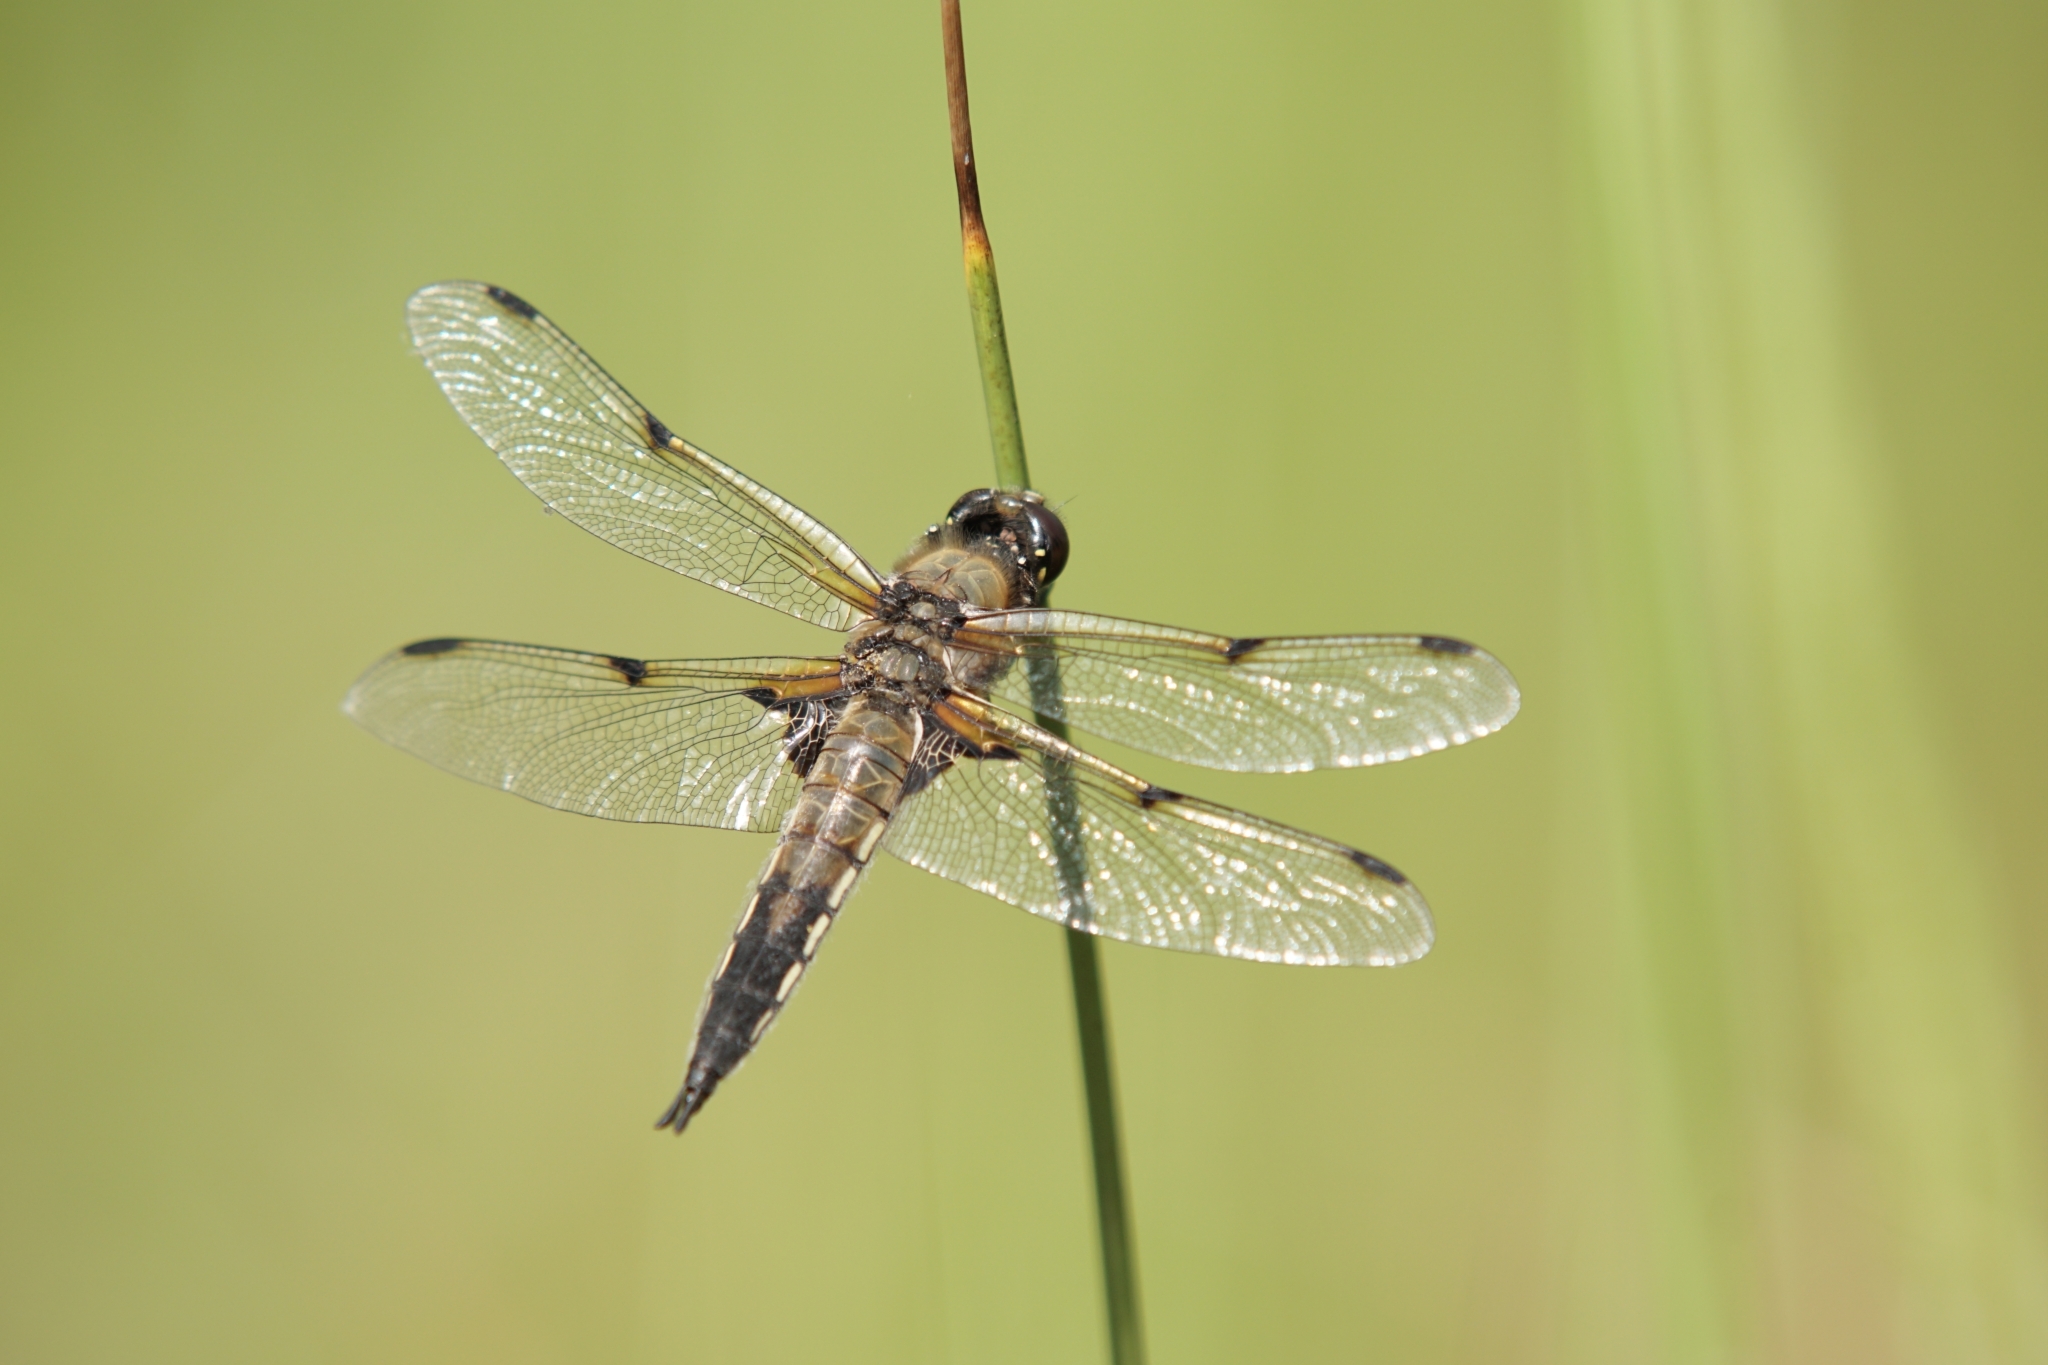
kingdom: Animalia
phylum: Arthropoda
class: Insecta
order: Odonata
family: Libellulidae
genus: Libellula
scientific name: Libellula quadrimaculata
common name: Four-spotted chaser
